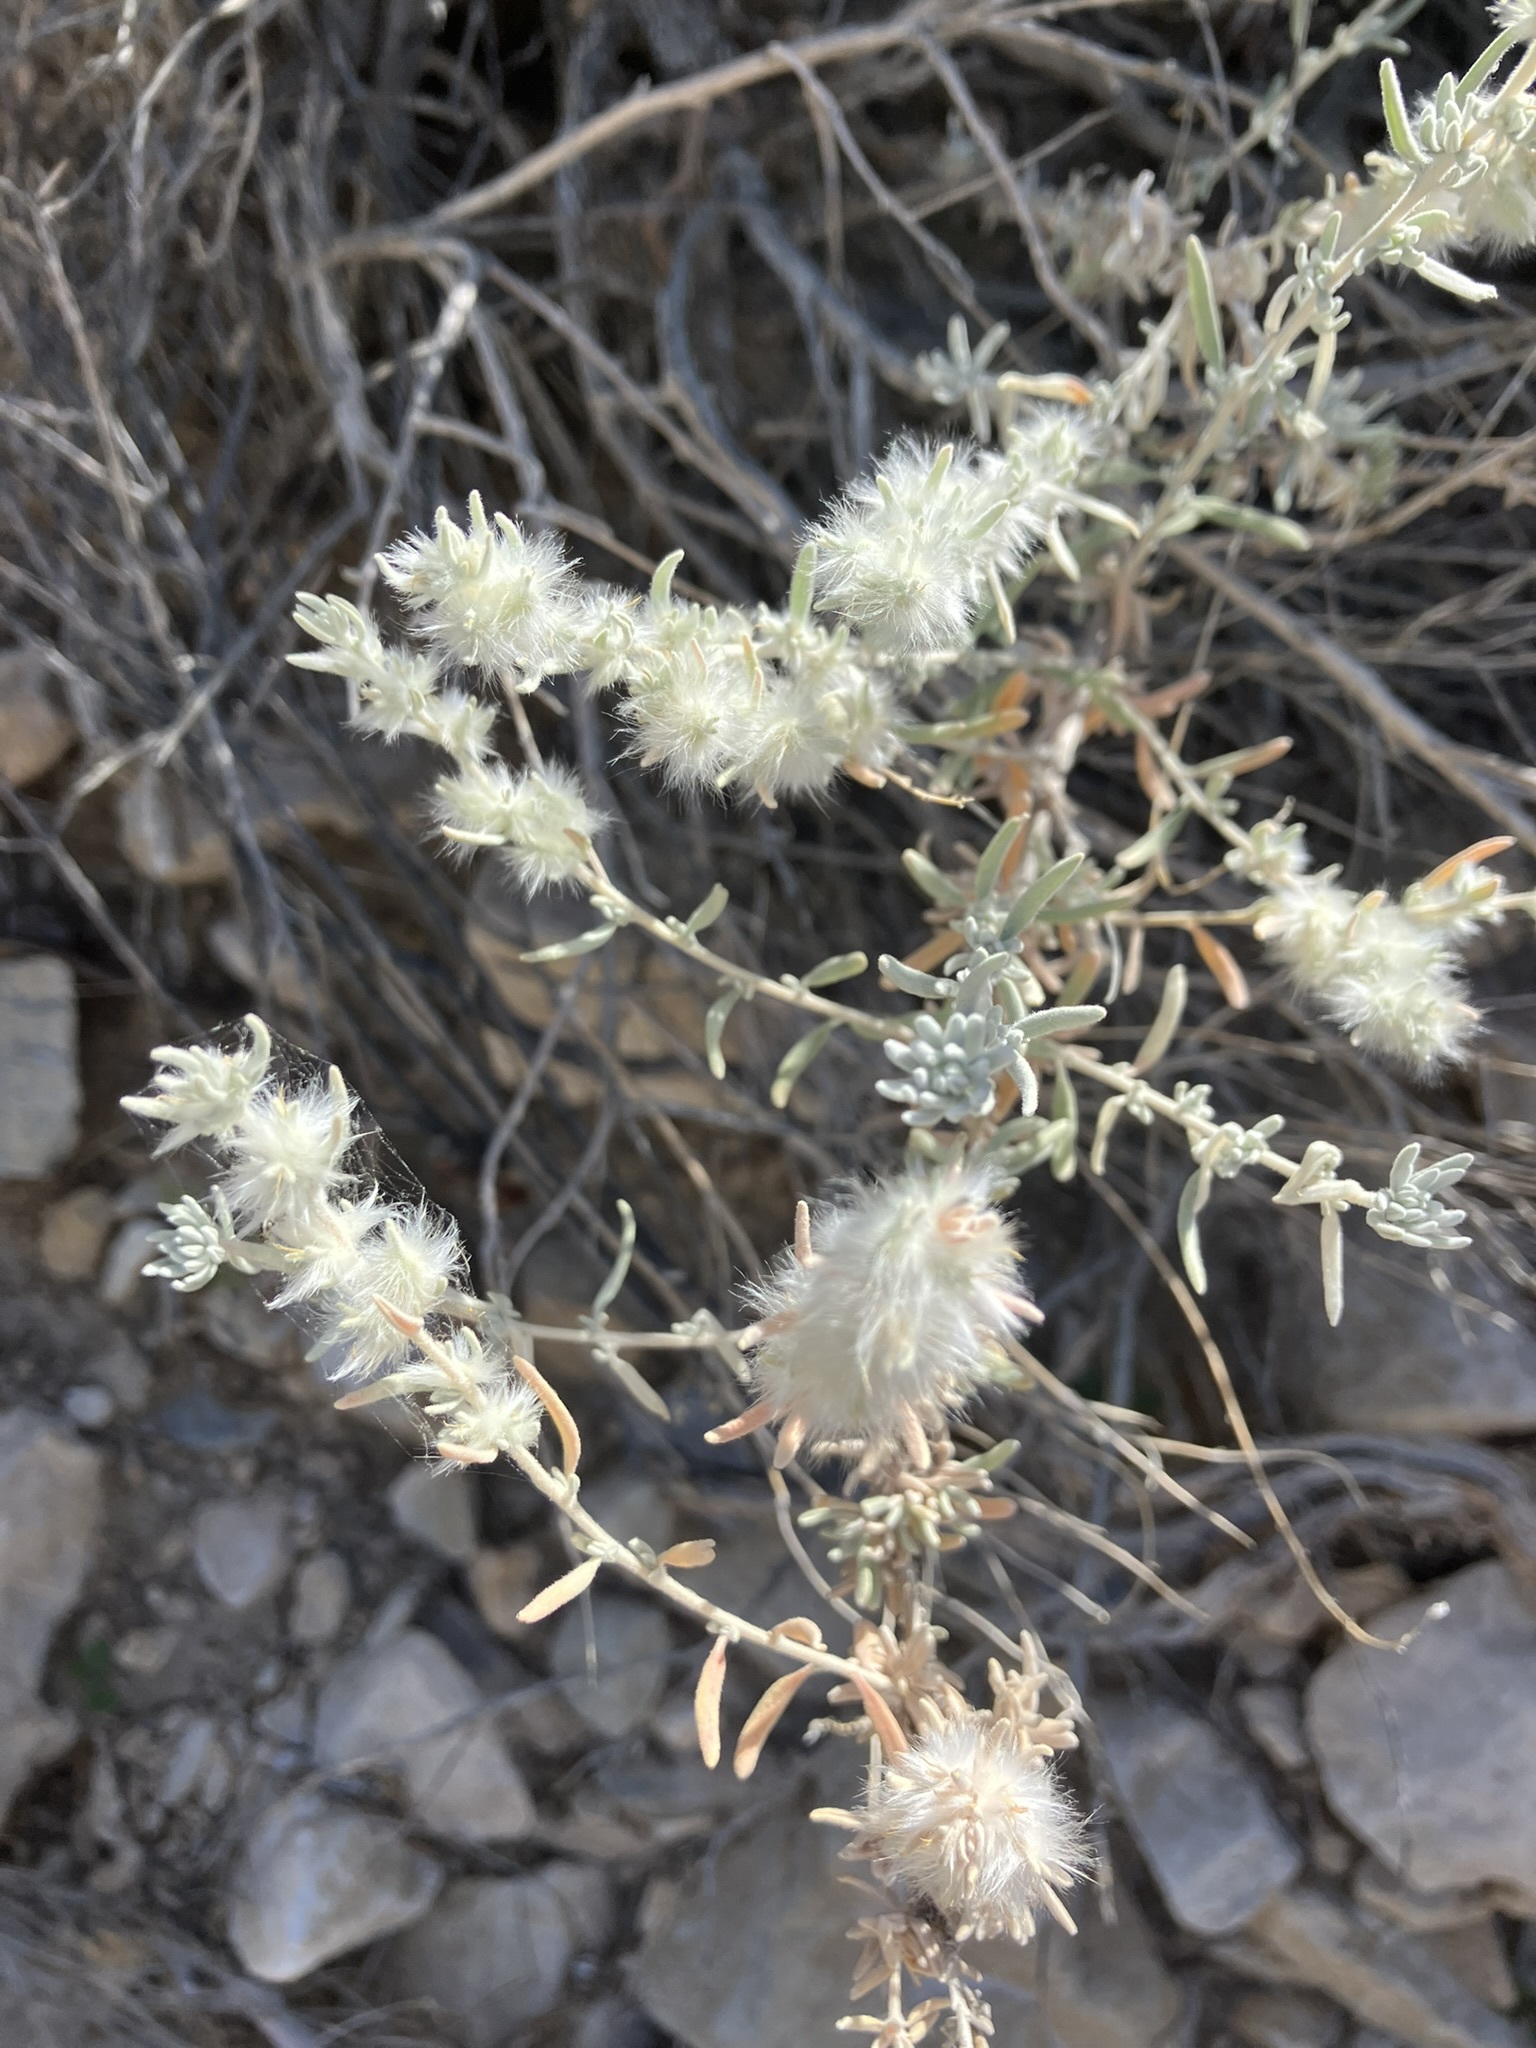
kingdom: Plantae
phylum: Tracheophyta
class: Magnoliopsida
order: Caryophyllales
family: Amaranthaceae
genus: Krascheninnikovia
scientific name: Krascheninnikovia lanata
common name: Winterfat
